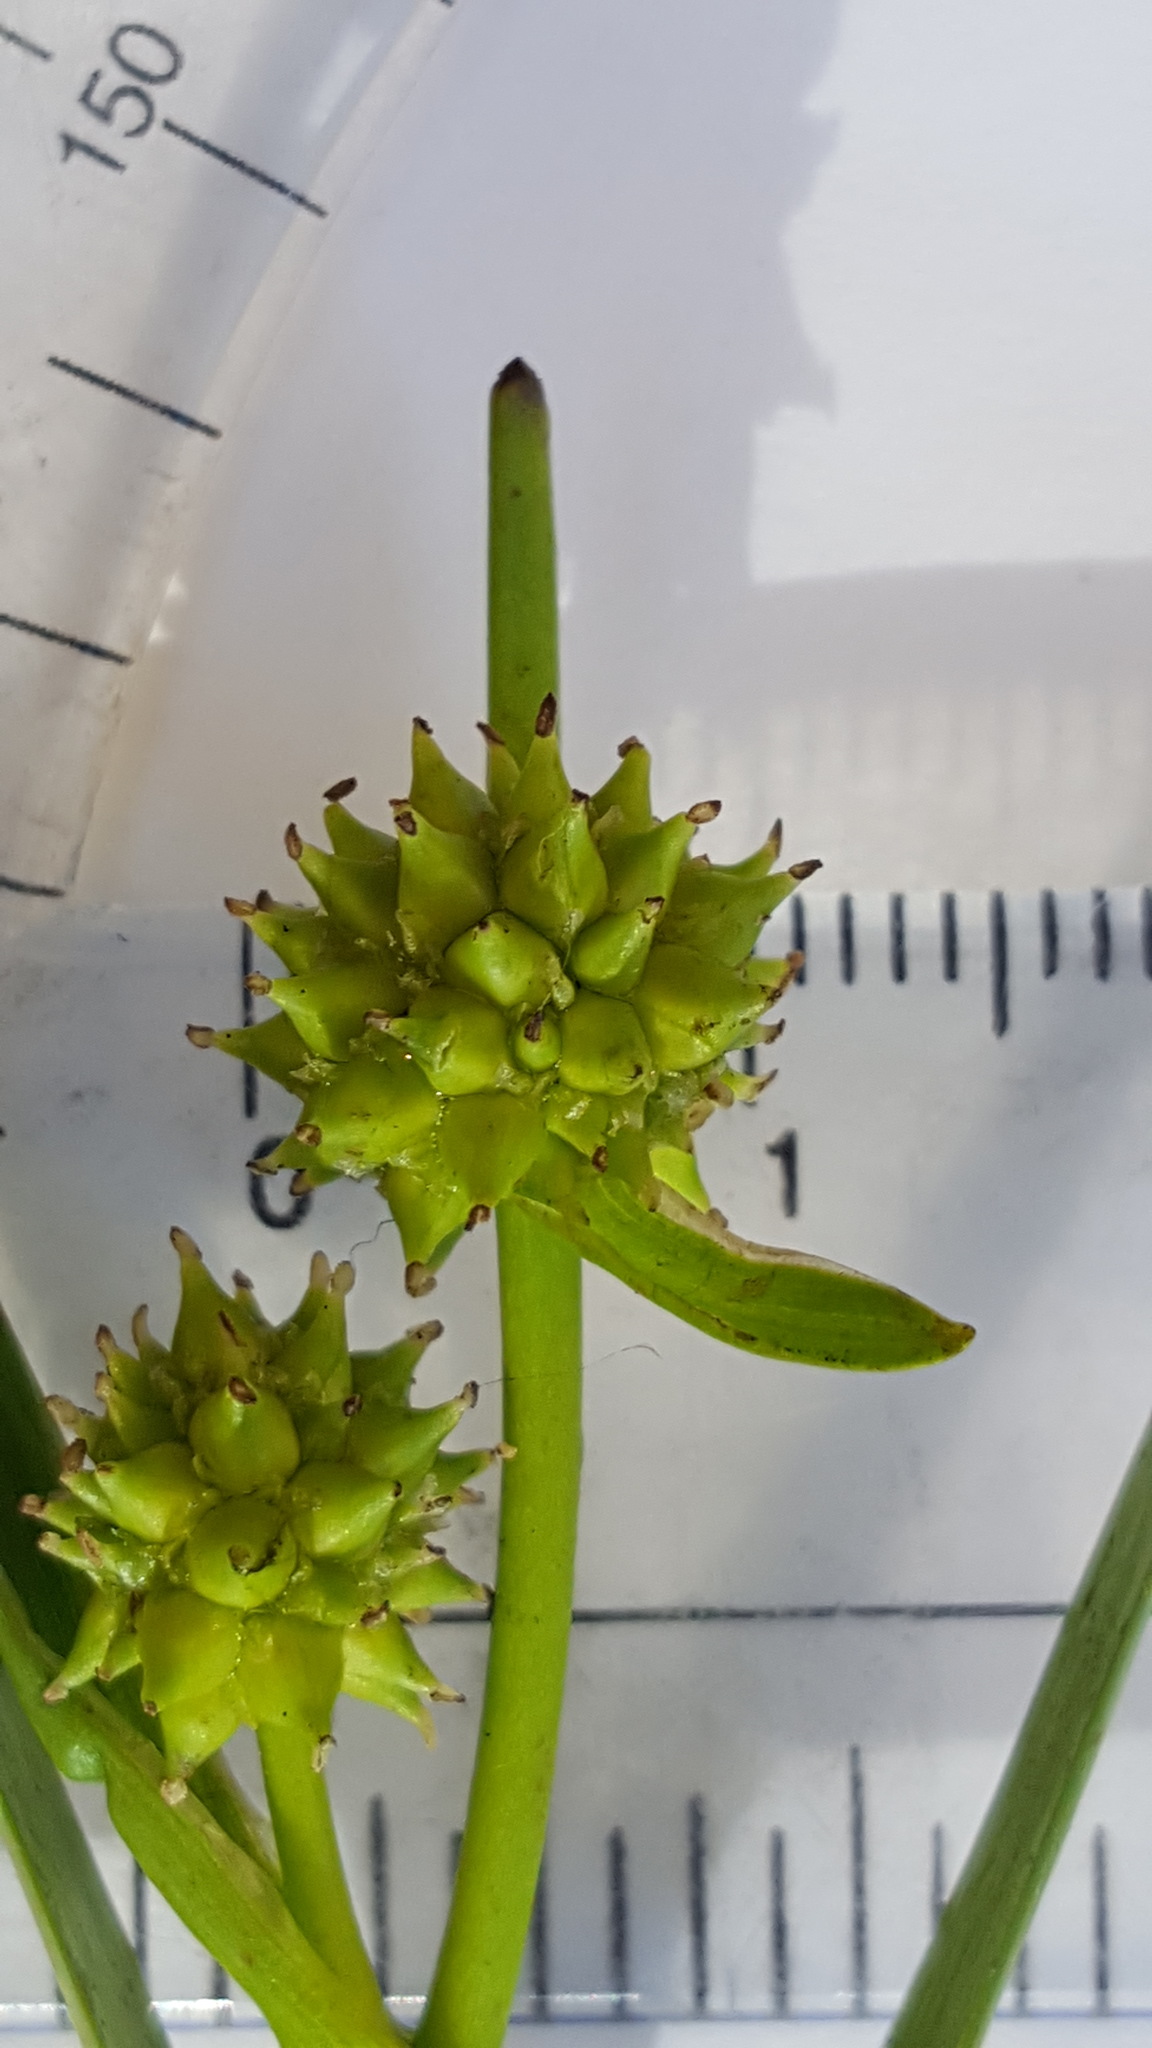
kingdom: Plantae
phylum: Tracheophyta
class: Liliopsida
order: Poales
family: Typhaceae
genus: Sparganium
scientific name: Sparganium natans
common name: Least bur-reed
